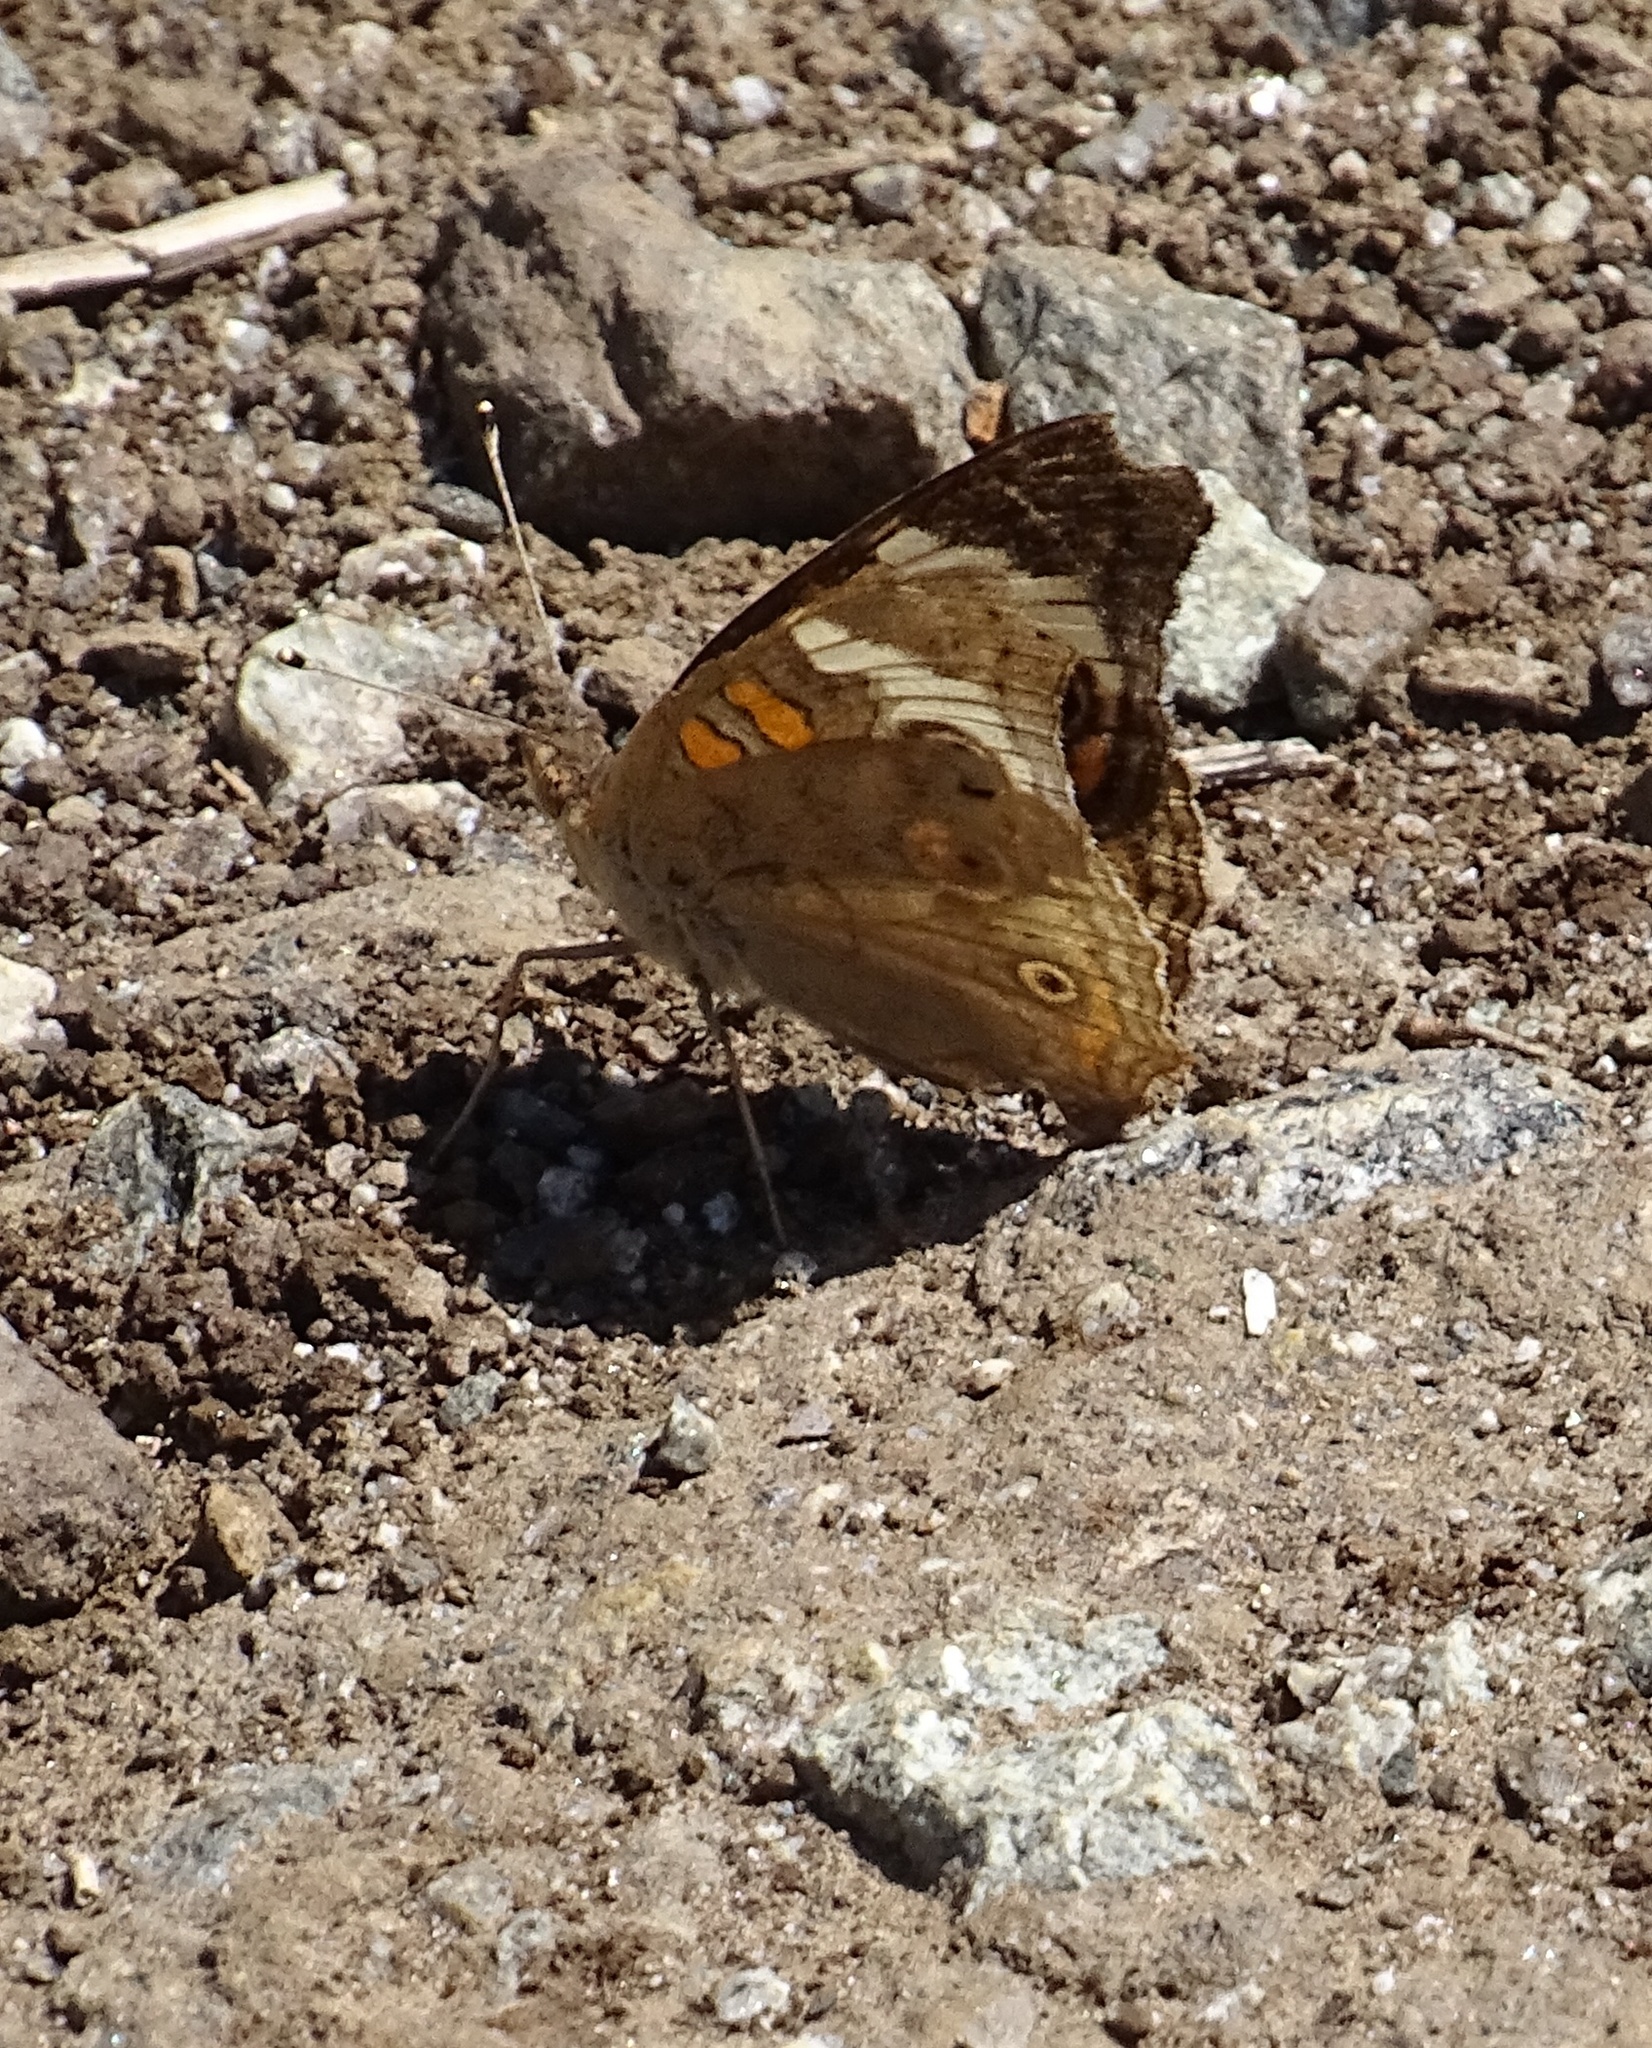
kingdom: Animalia
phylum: Arthropoda
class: Insecta
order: Lepidoptera
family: Nymphalidae
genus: Junonia
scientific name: Junonia grisea
